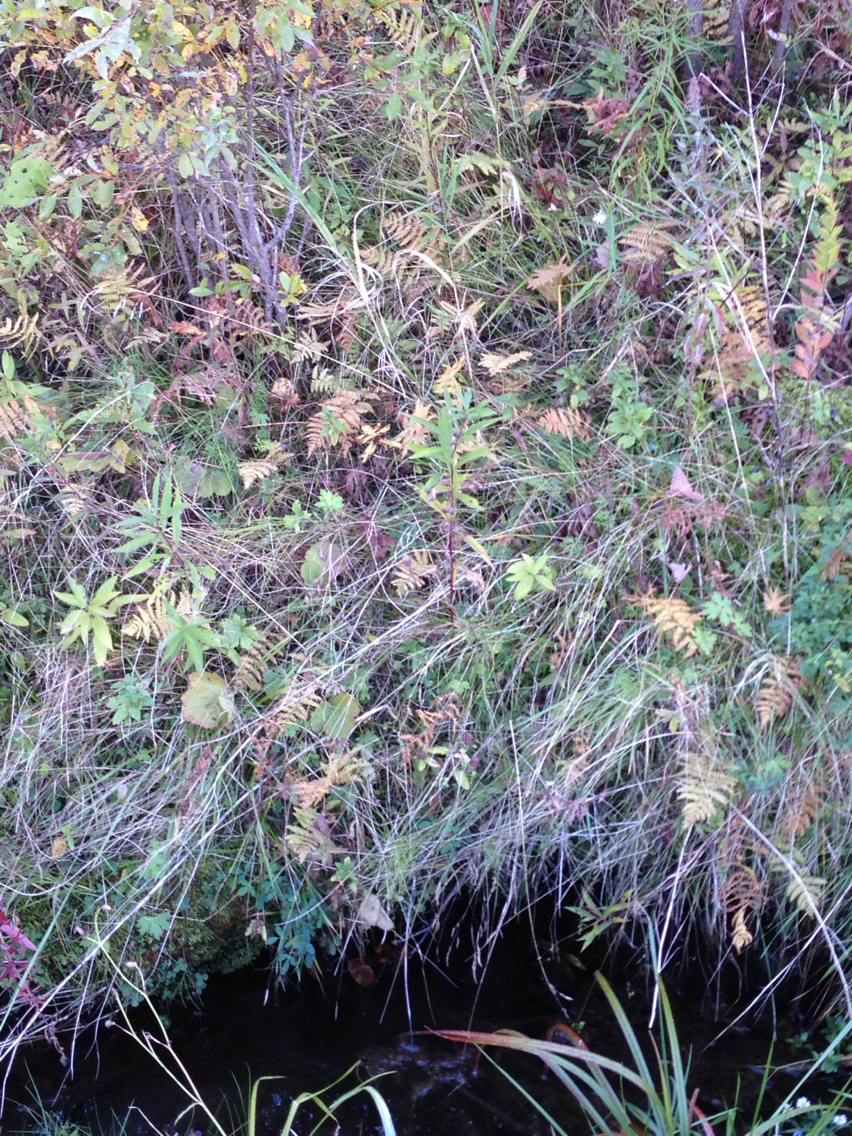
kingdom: Plantae
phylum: Tracheophyta
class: Polypodiopsida
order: Polypodiales
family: Thelypteridaceae
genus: Thelypteris
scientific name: Thelypteris palustris
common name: Marsh fern
